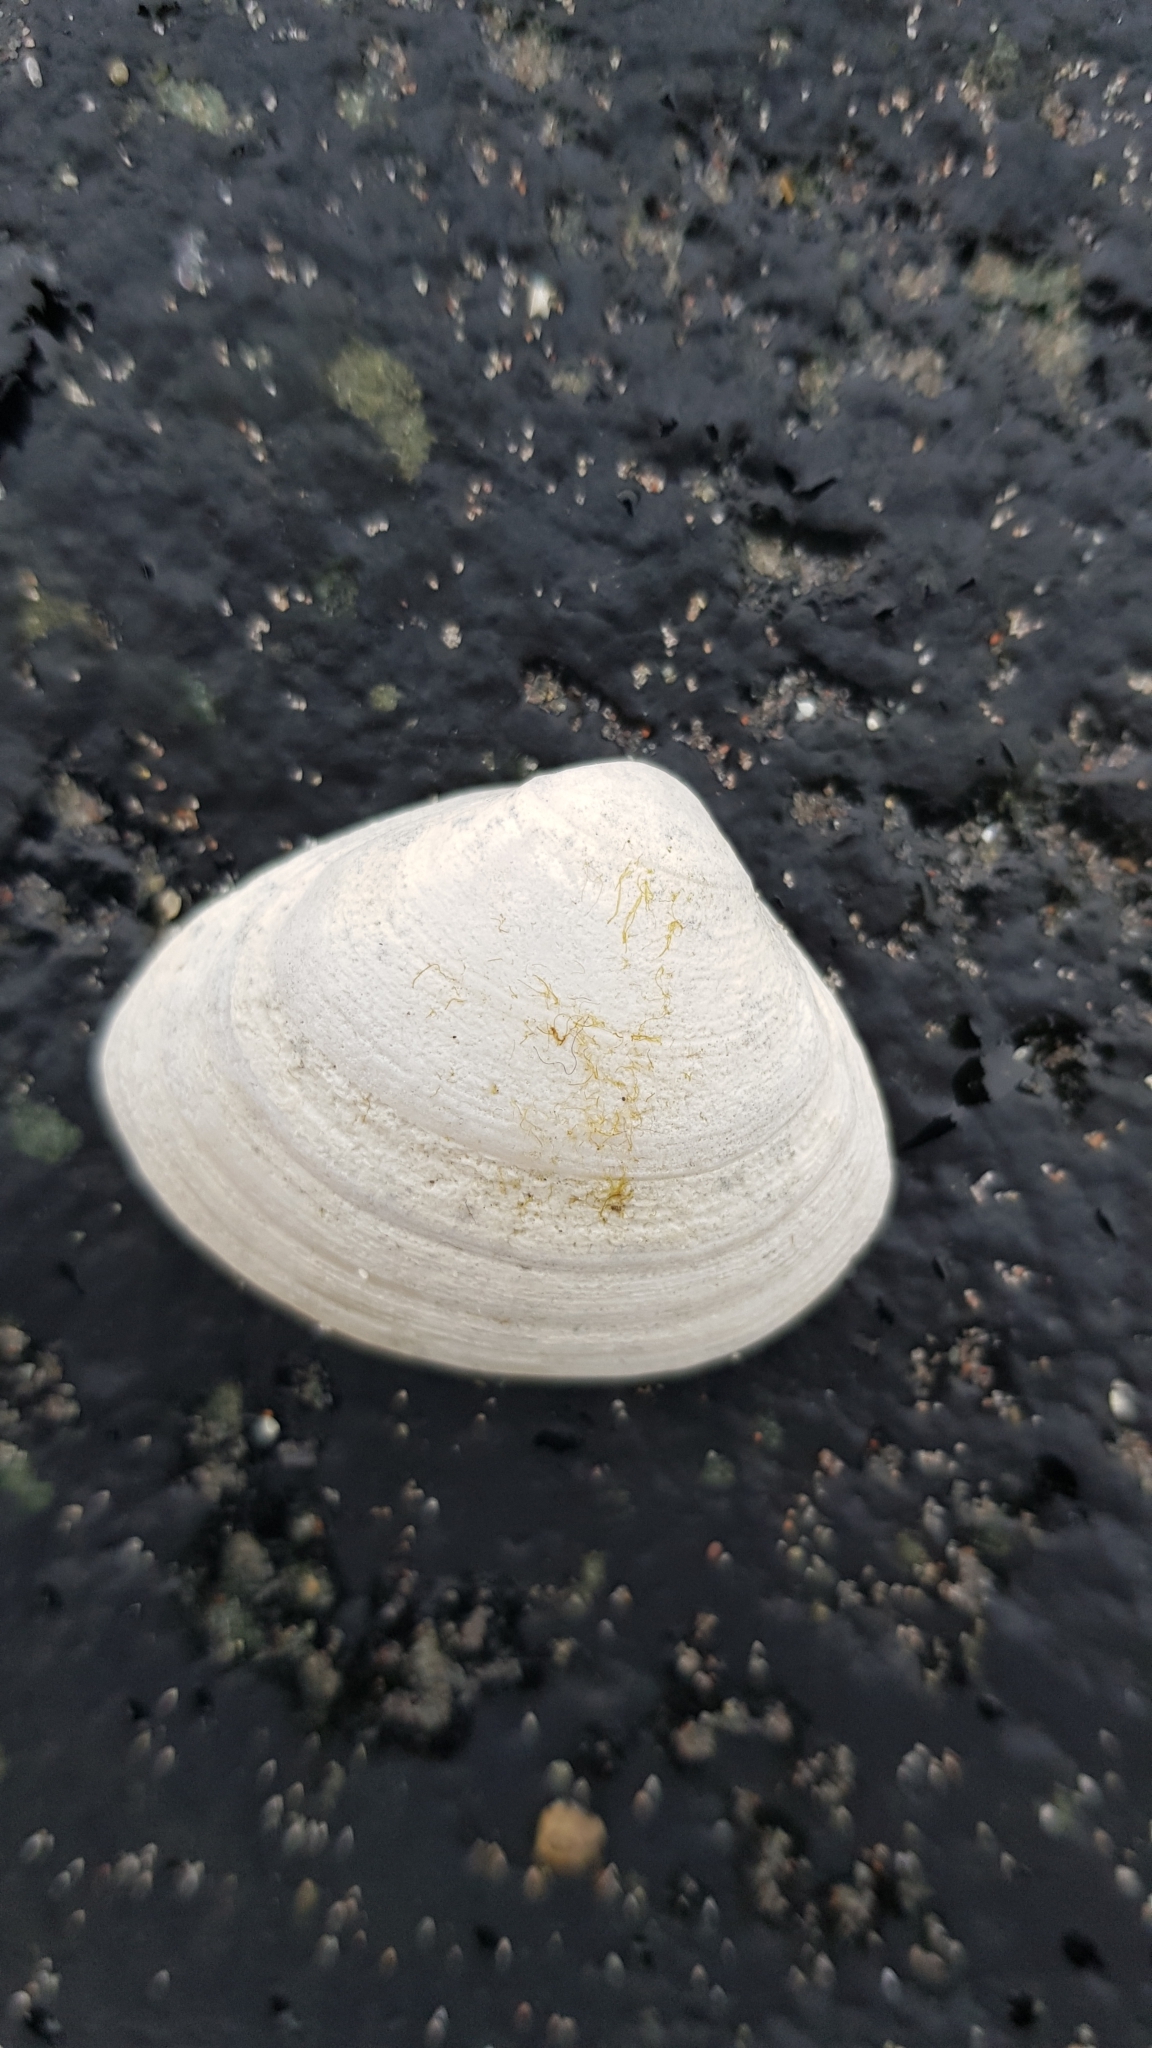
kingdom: Animalia
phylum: Mollusca
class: Bivalvia
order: Venerida
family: Mactridae
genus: Spisula
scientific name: Spisula subtruncata
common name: Cut trough shell
